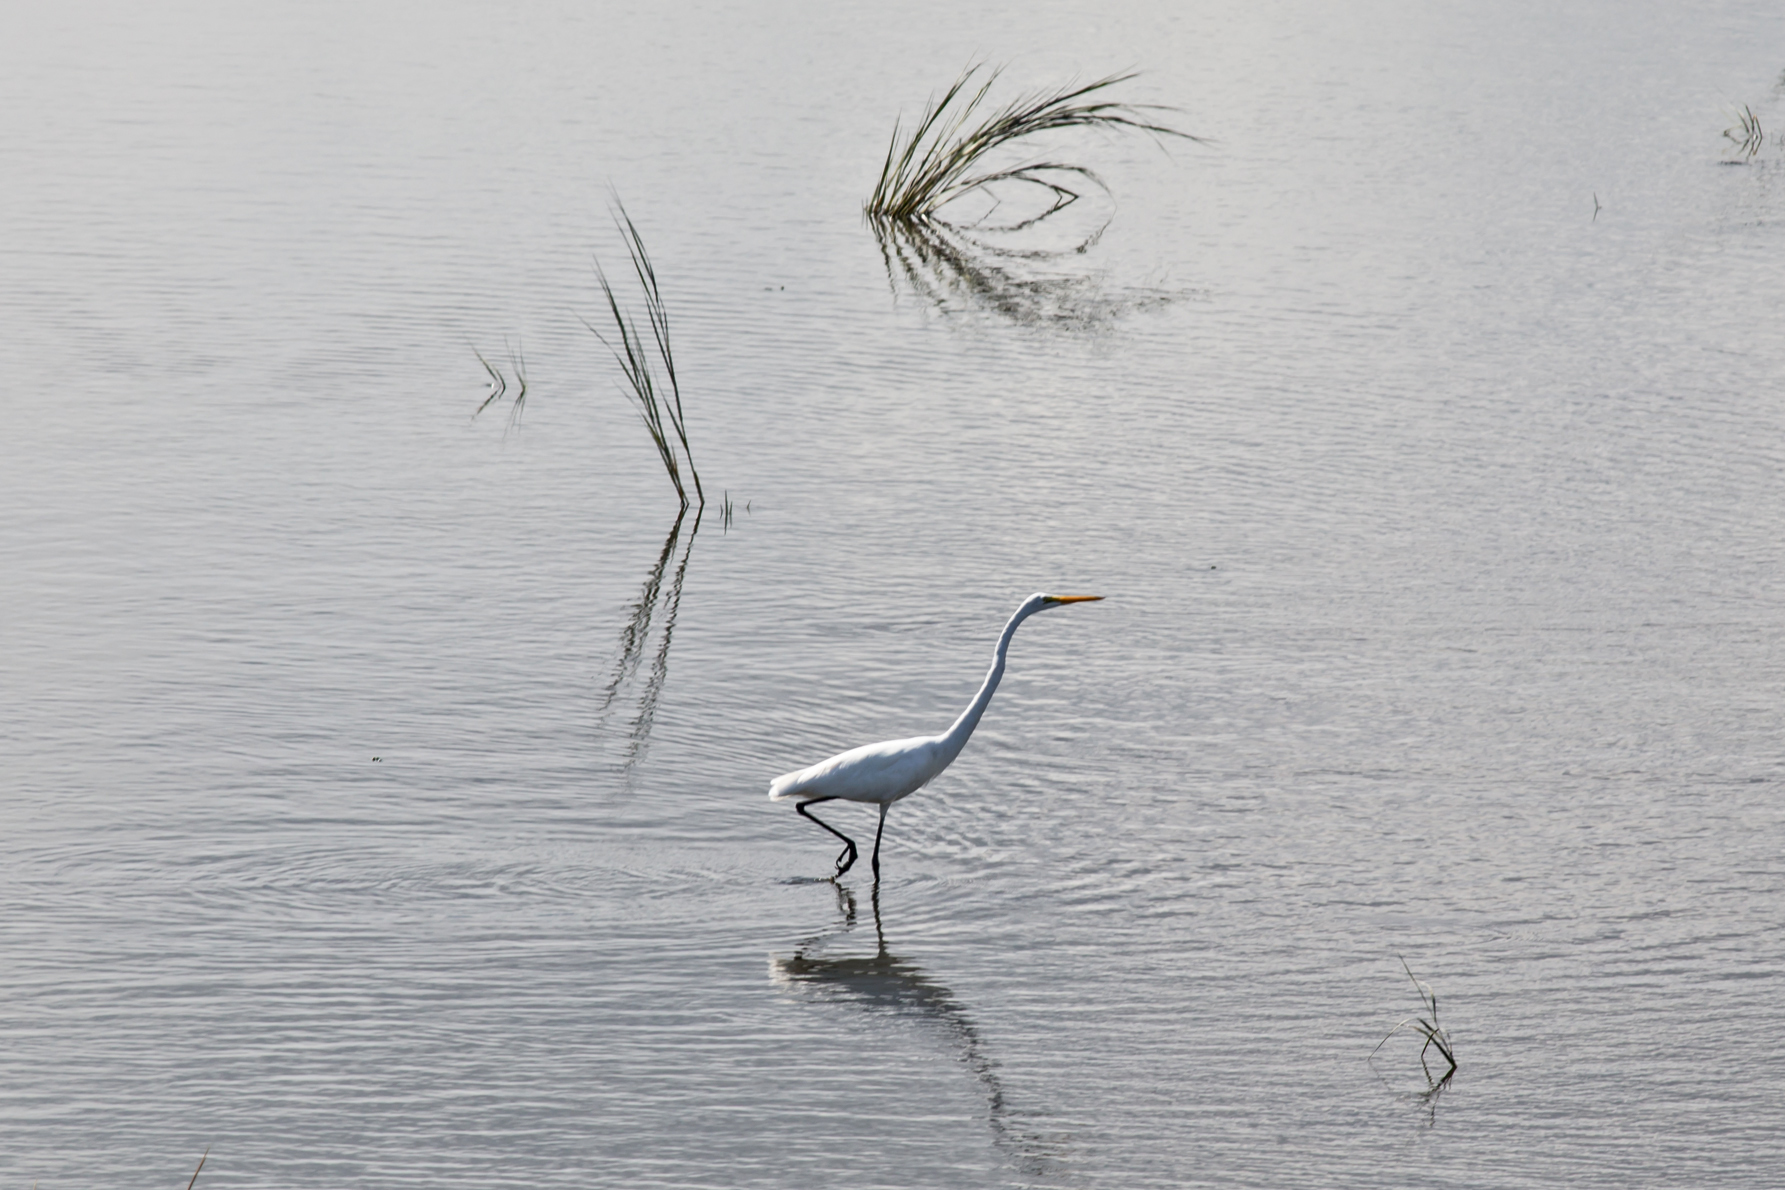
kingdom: Animalia
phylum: Chordata
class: Aves
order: Pelecaniformes
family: Ardeidae
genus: Ardea
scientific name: Ardea alba
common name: Great egret
